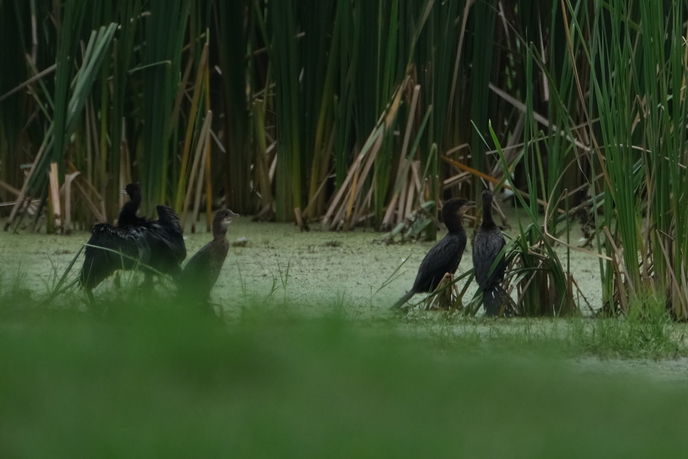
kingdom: Animalia
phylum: Chordata
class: Aves
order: Suliformes
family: Phalacrocoracidae
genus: Microcarbo
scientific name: Microcarbo pygmaeus
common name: Pygmy cormorant
